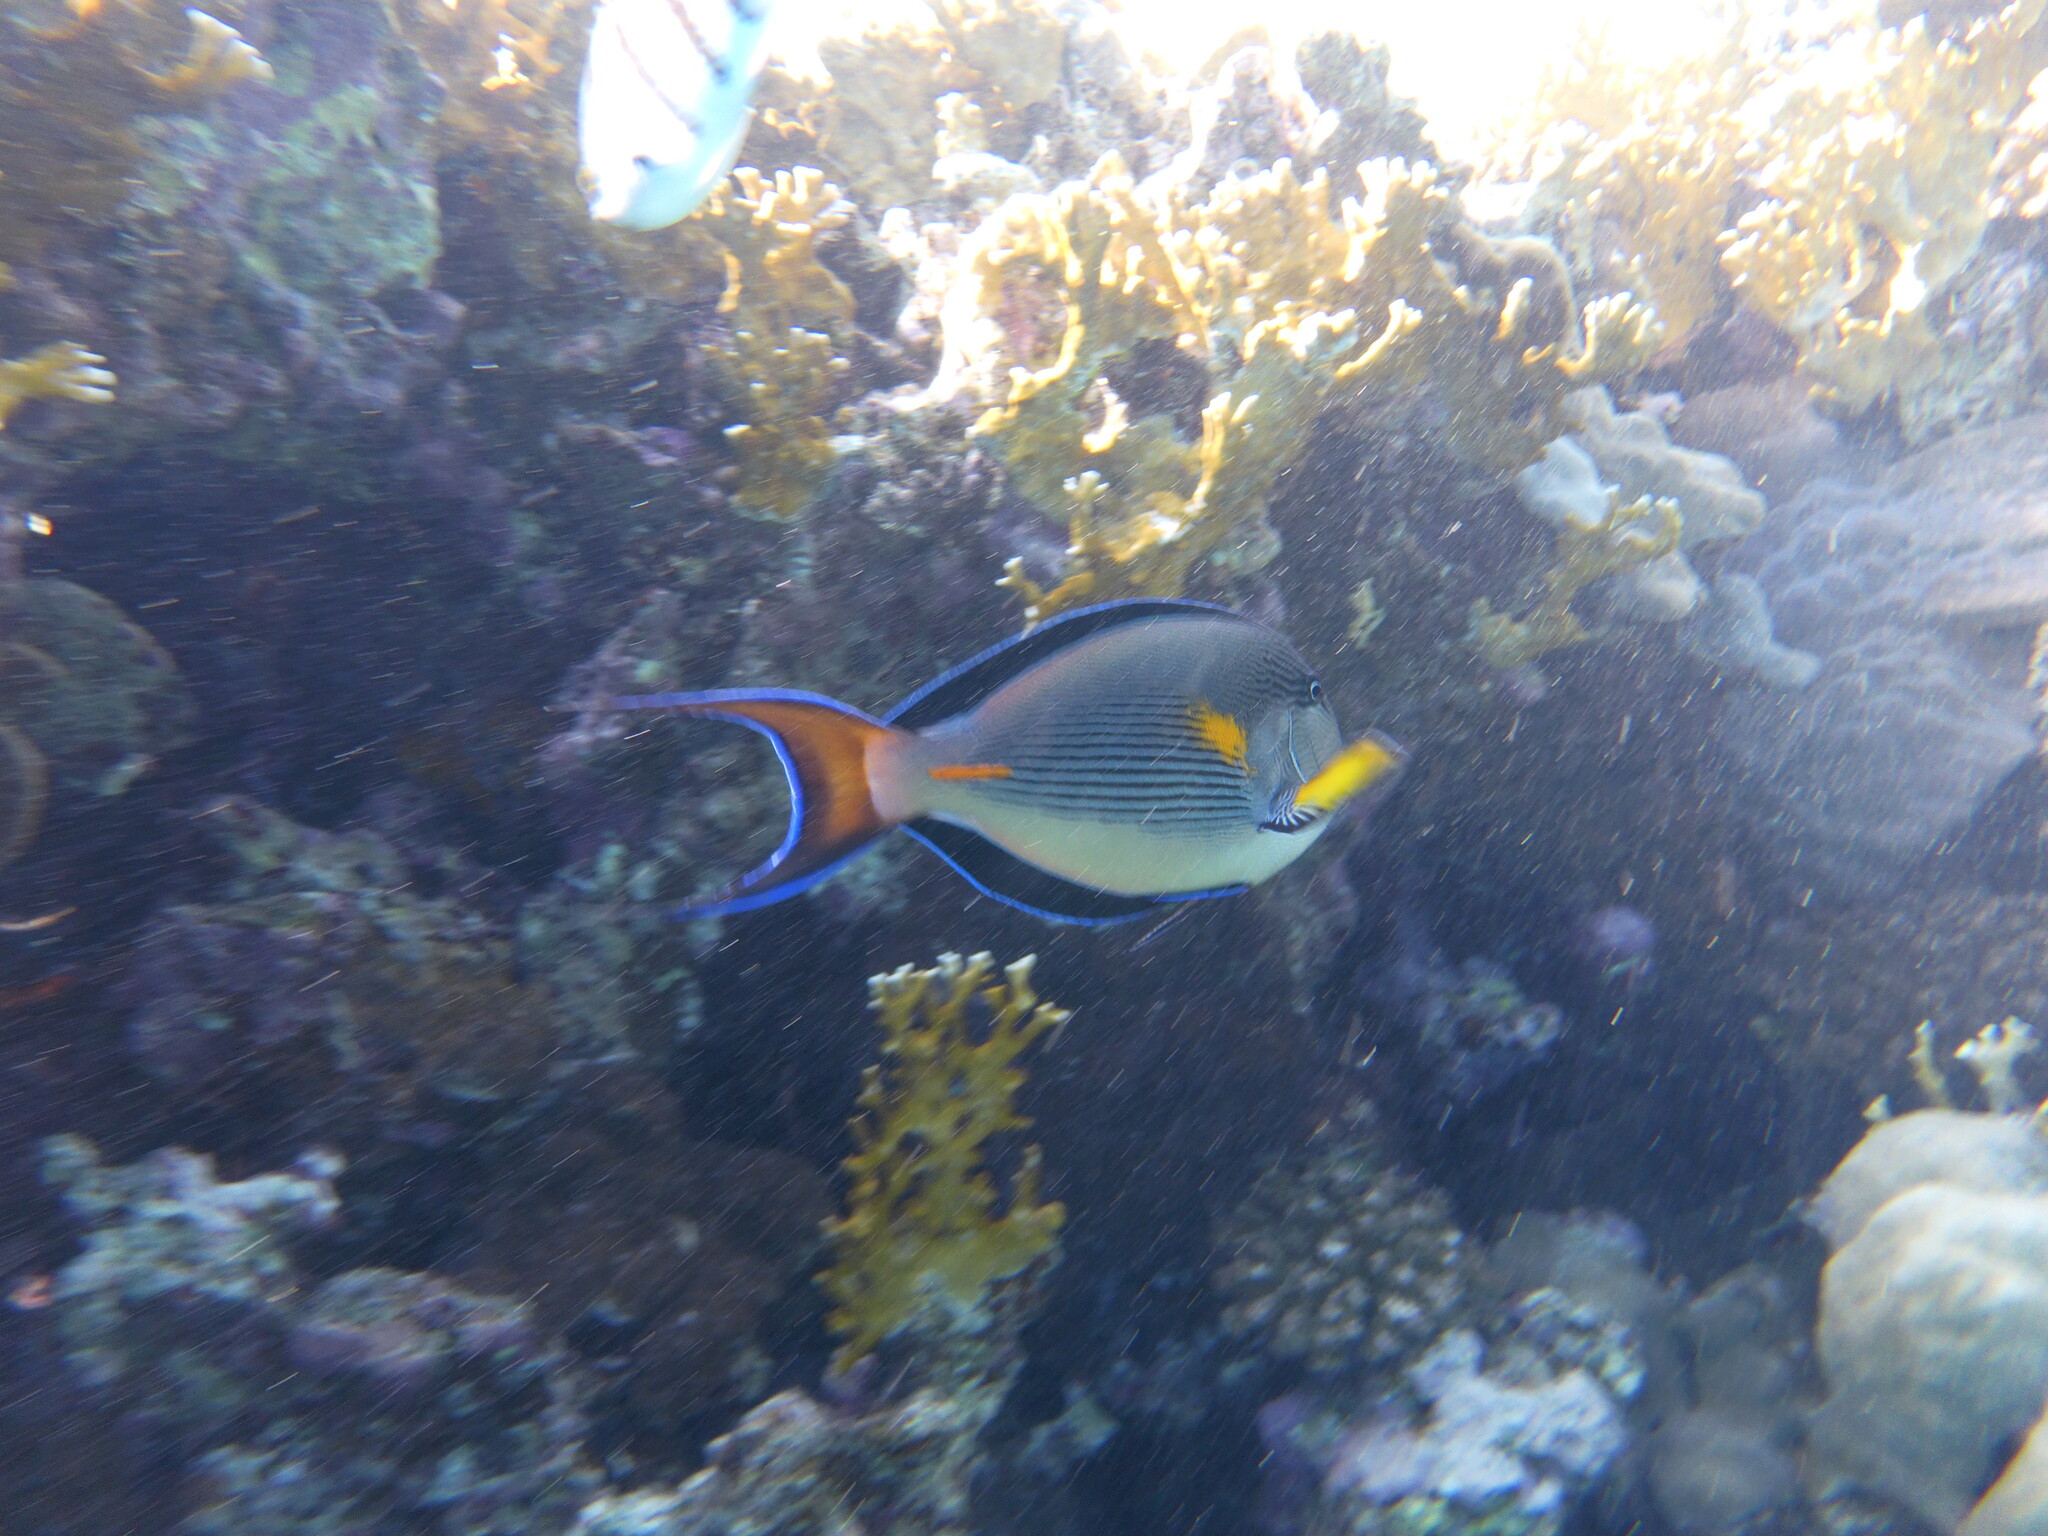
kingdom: Animalia
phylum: Chordata
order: Perciformes
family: Acanthuridae
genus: Acanthurus
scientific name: Acanthurus sohal
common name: Red sea surgeonfish
